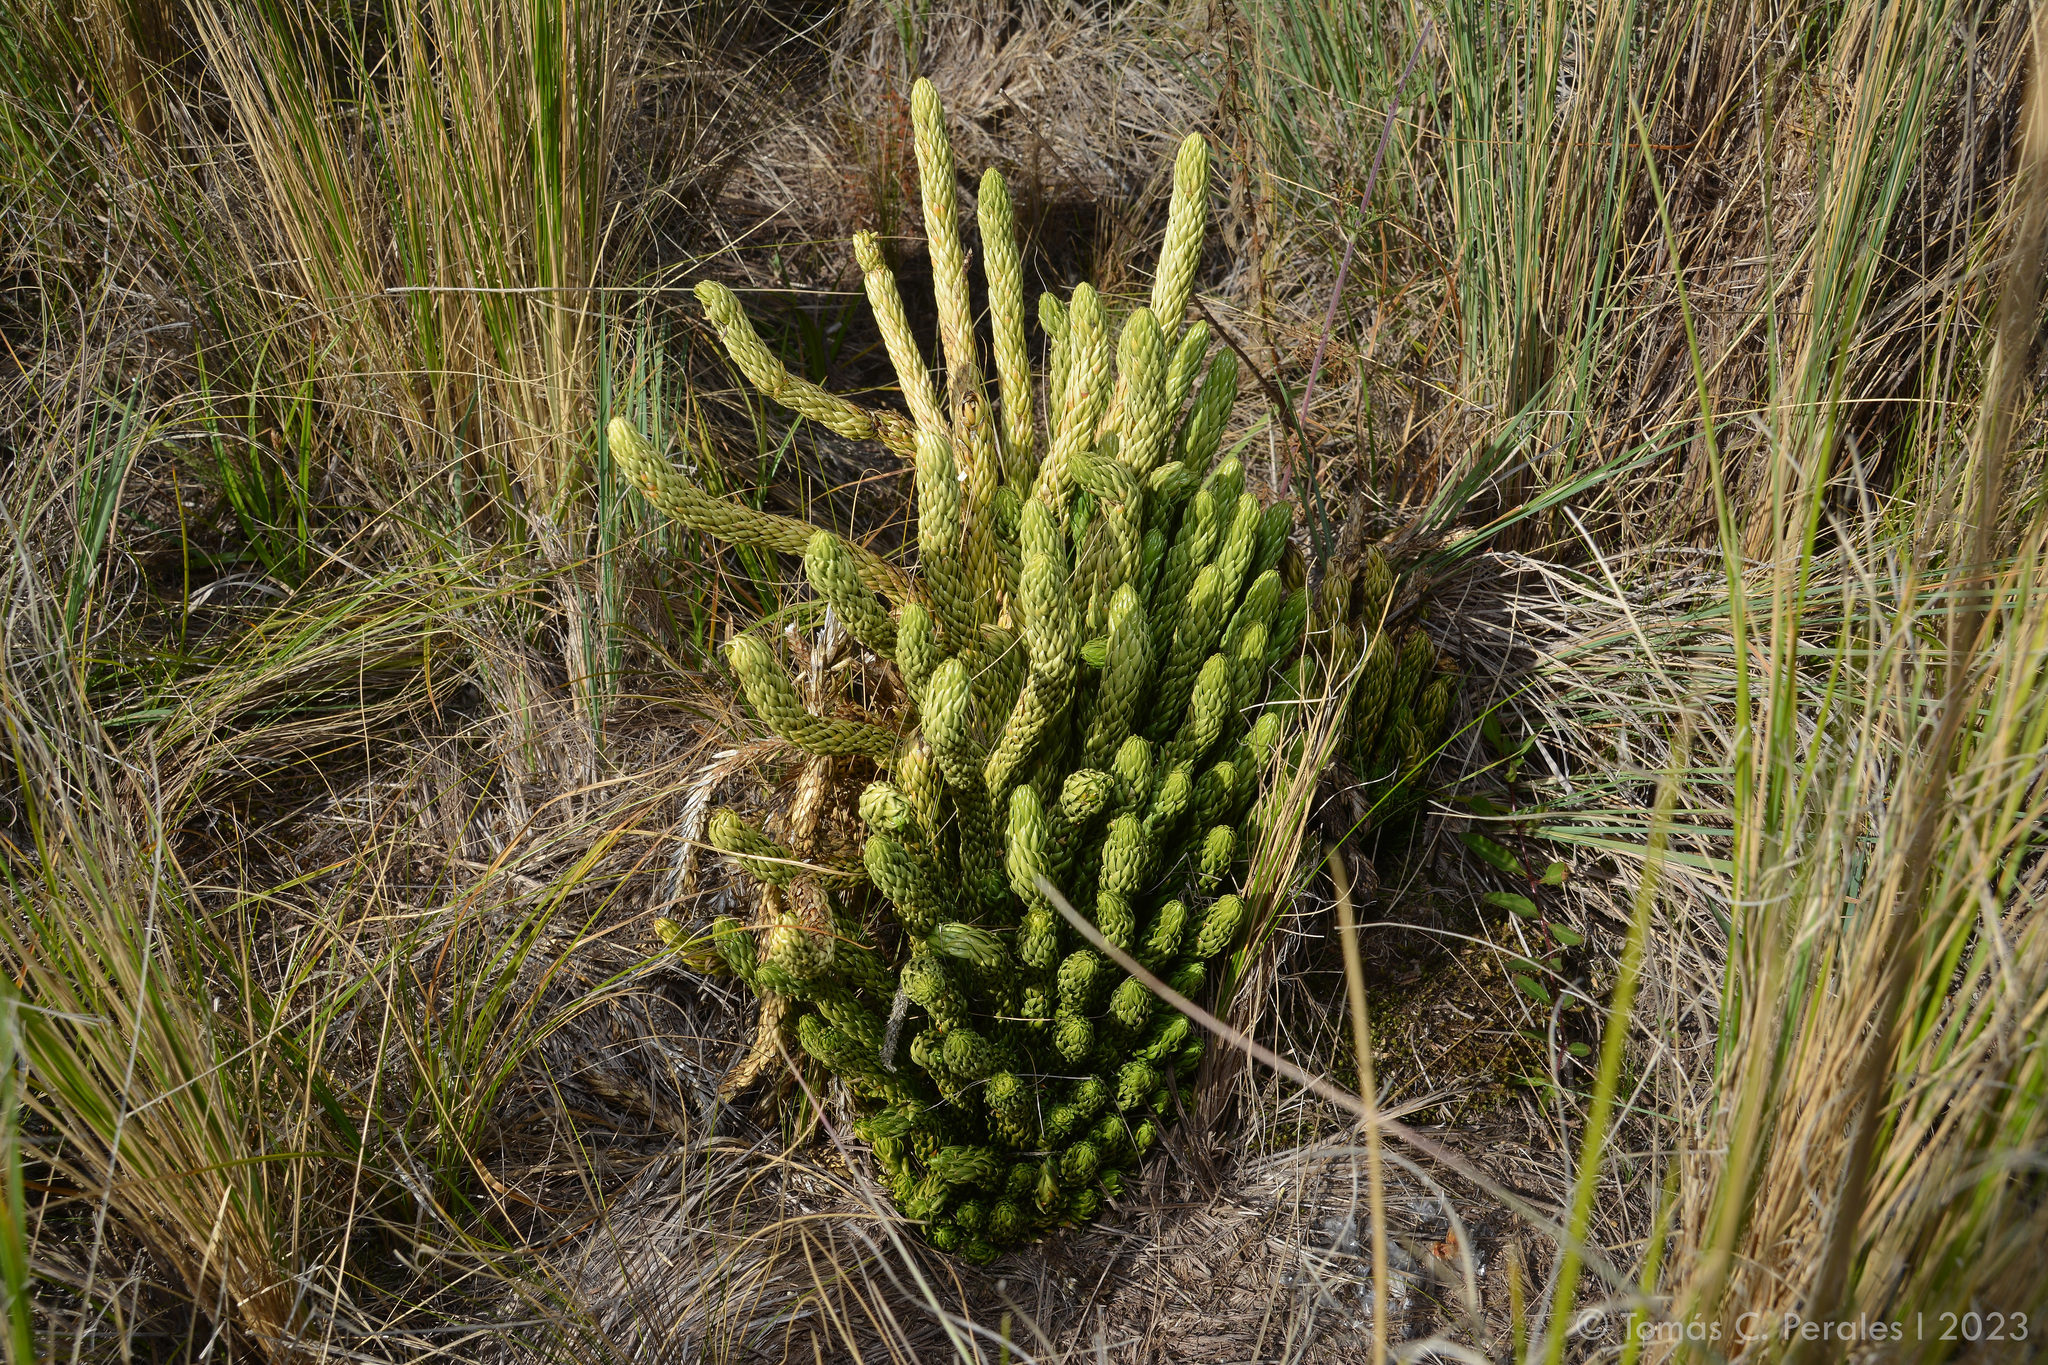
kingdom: Plantae
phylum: Tracheophyta
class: Lycopodiopsida
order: Lycopodiales
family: Lycopodiaceae
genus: Phlegmariurus
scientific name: Phlegmariurus saururus
